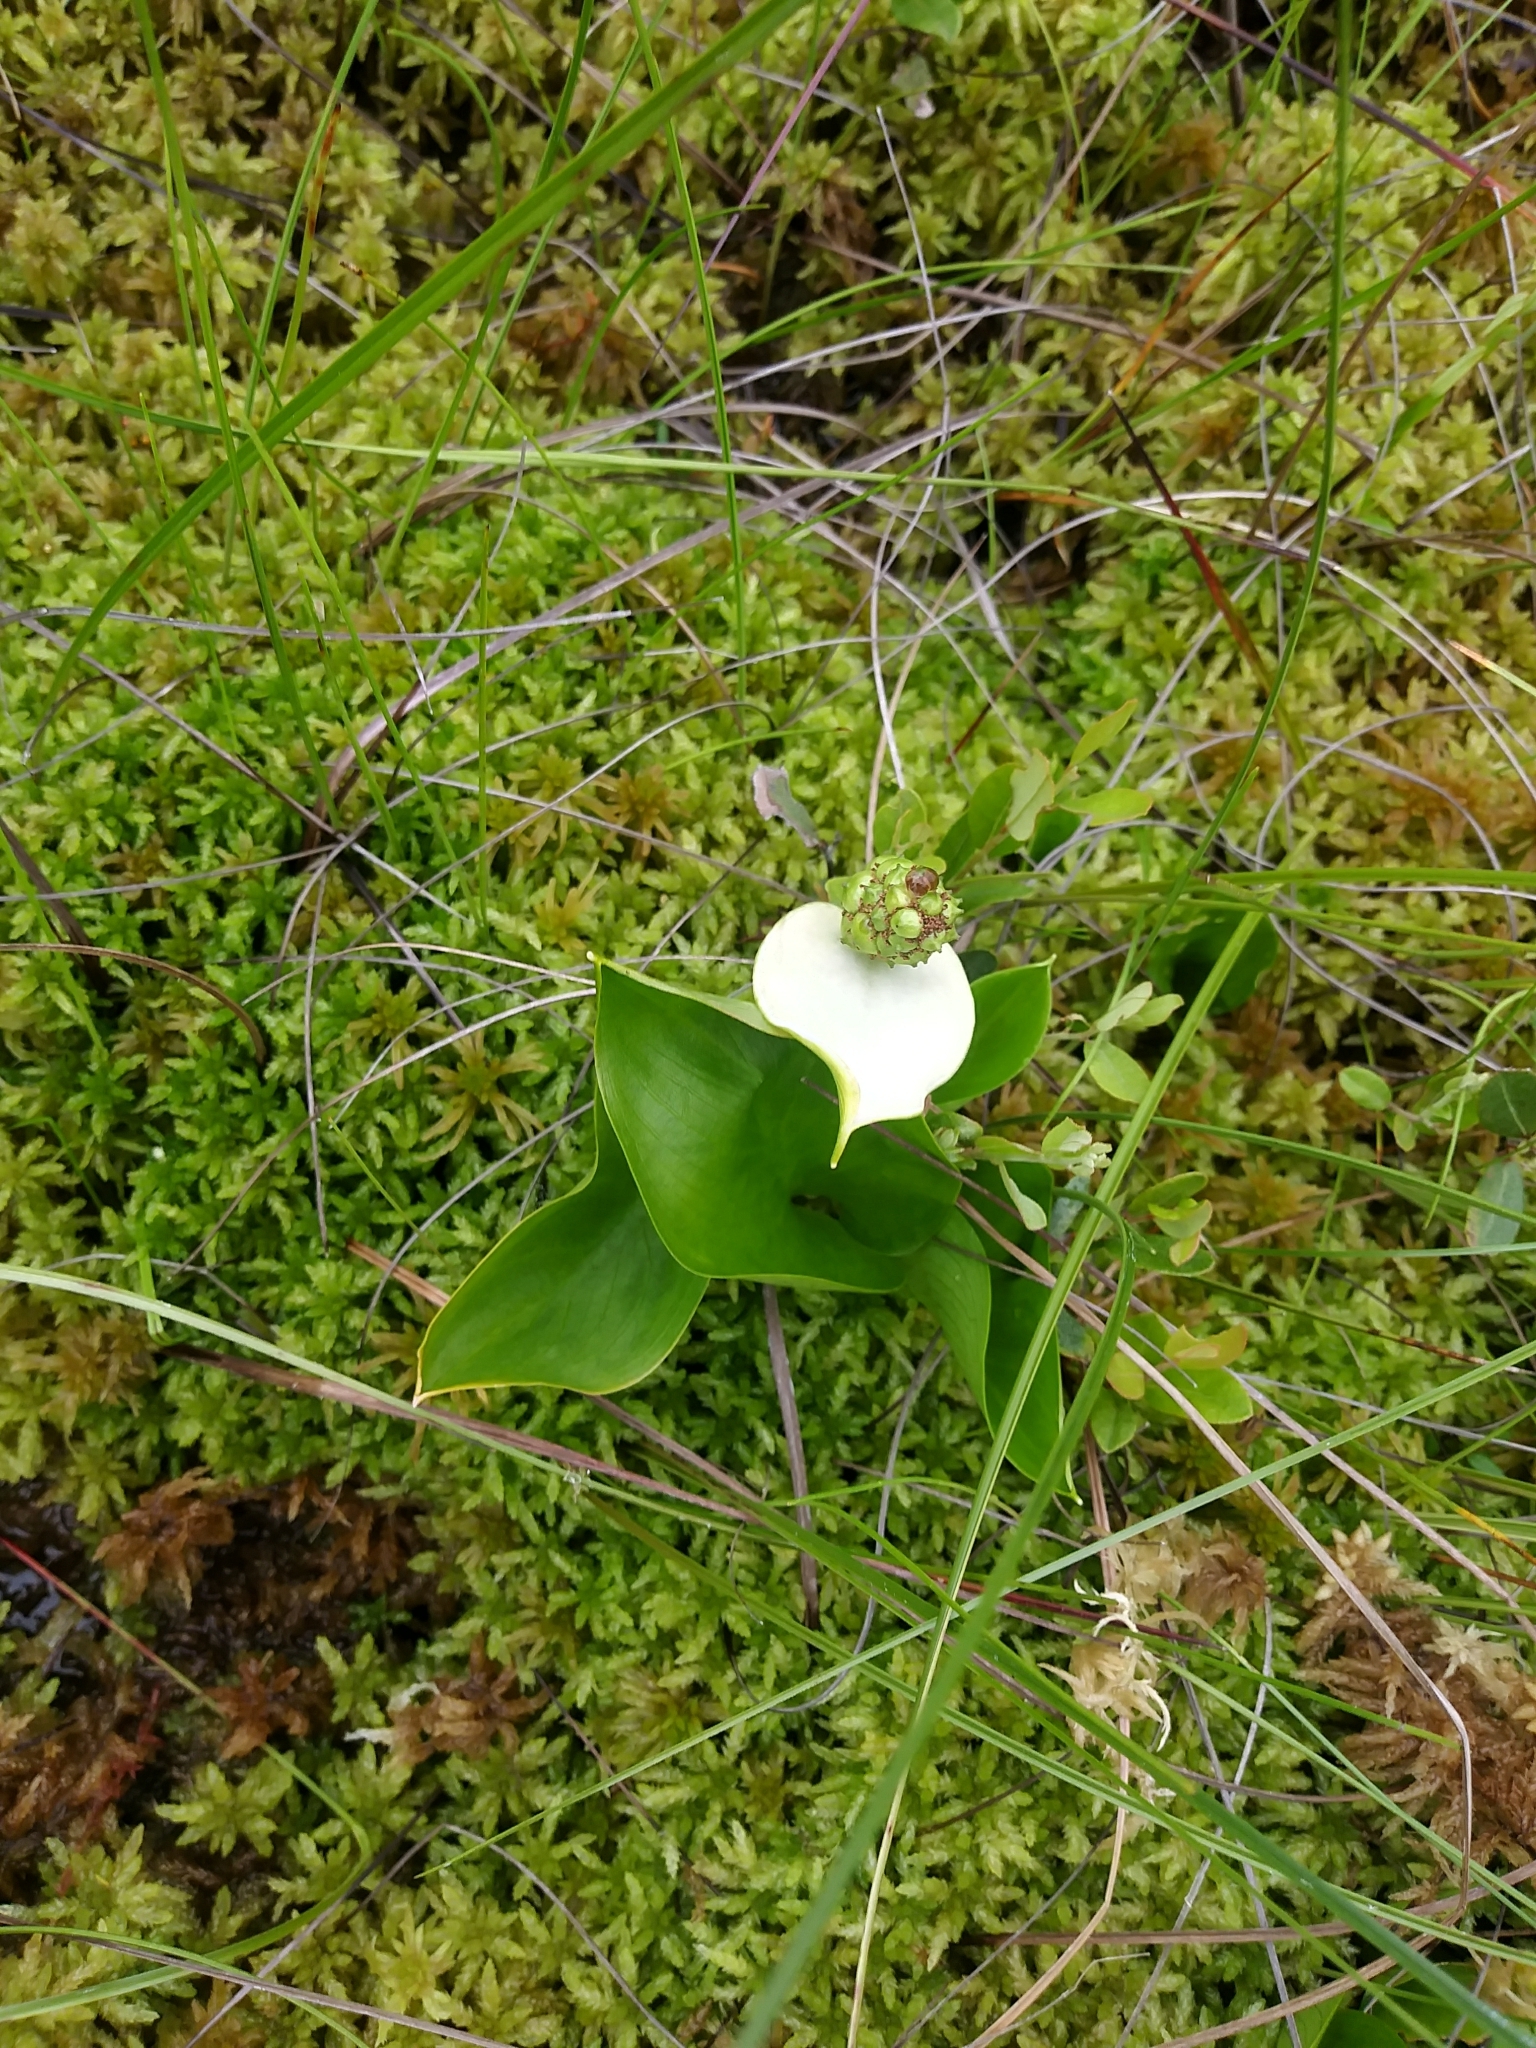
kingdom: Plantae
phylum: Tracheophyta
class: Liliopsida
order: Alismatales
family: Araceae
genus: Calla
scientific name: Calla palustris
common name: Bog arum
